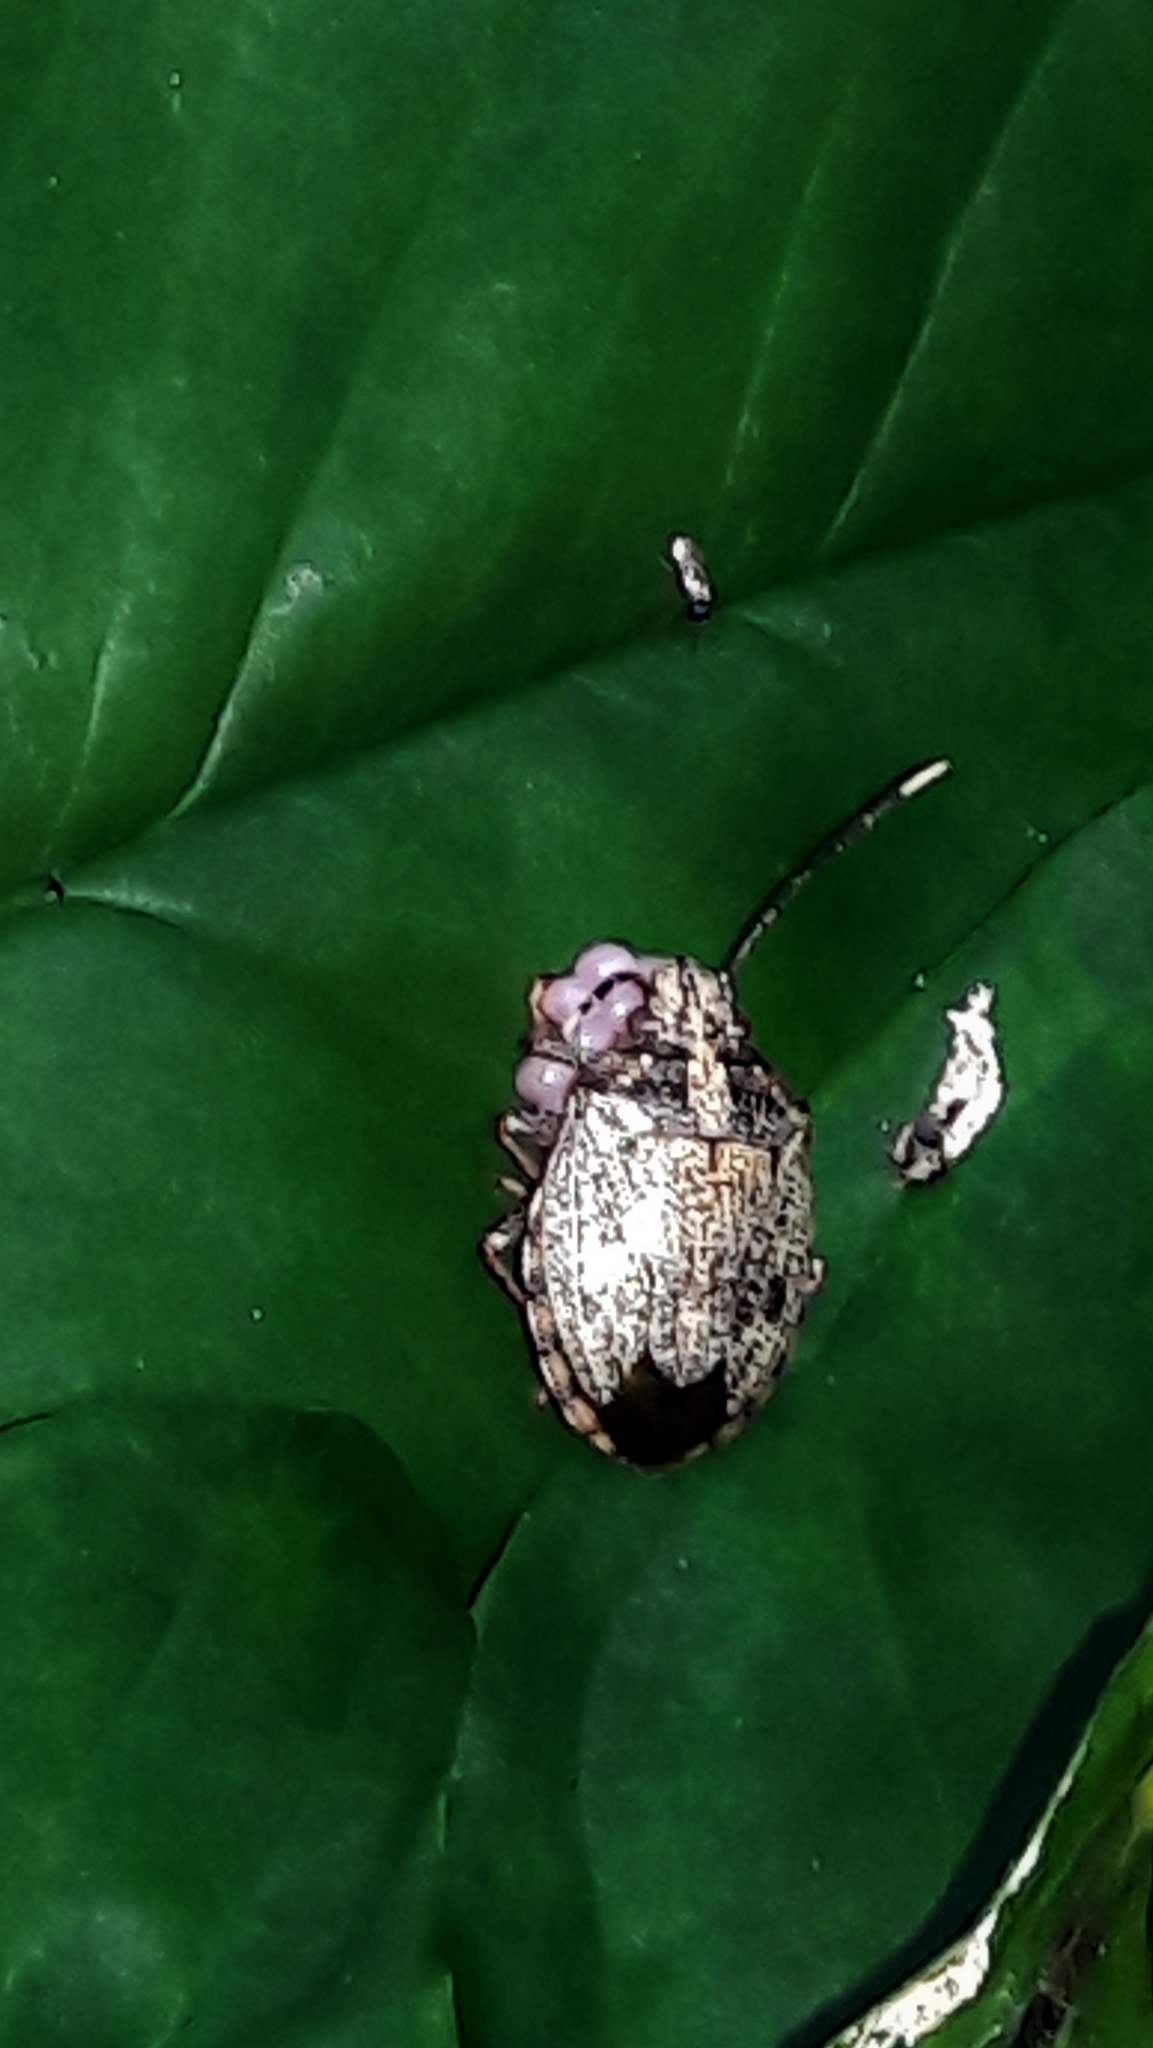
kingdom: Animalia
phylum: Arthropoda
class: Insecta
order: Hemiptera
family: Pentatomidae
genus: Antiteuchus
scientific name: Antiteuchus tripterus
